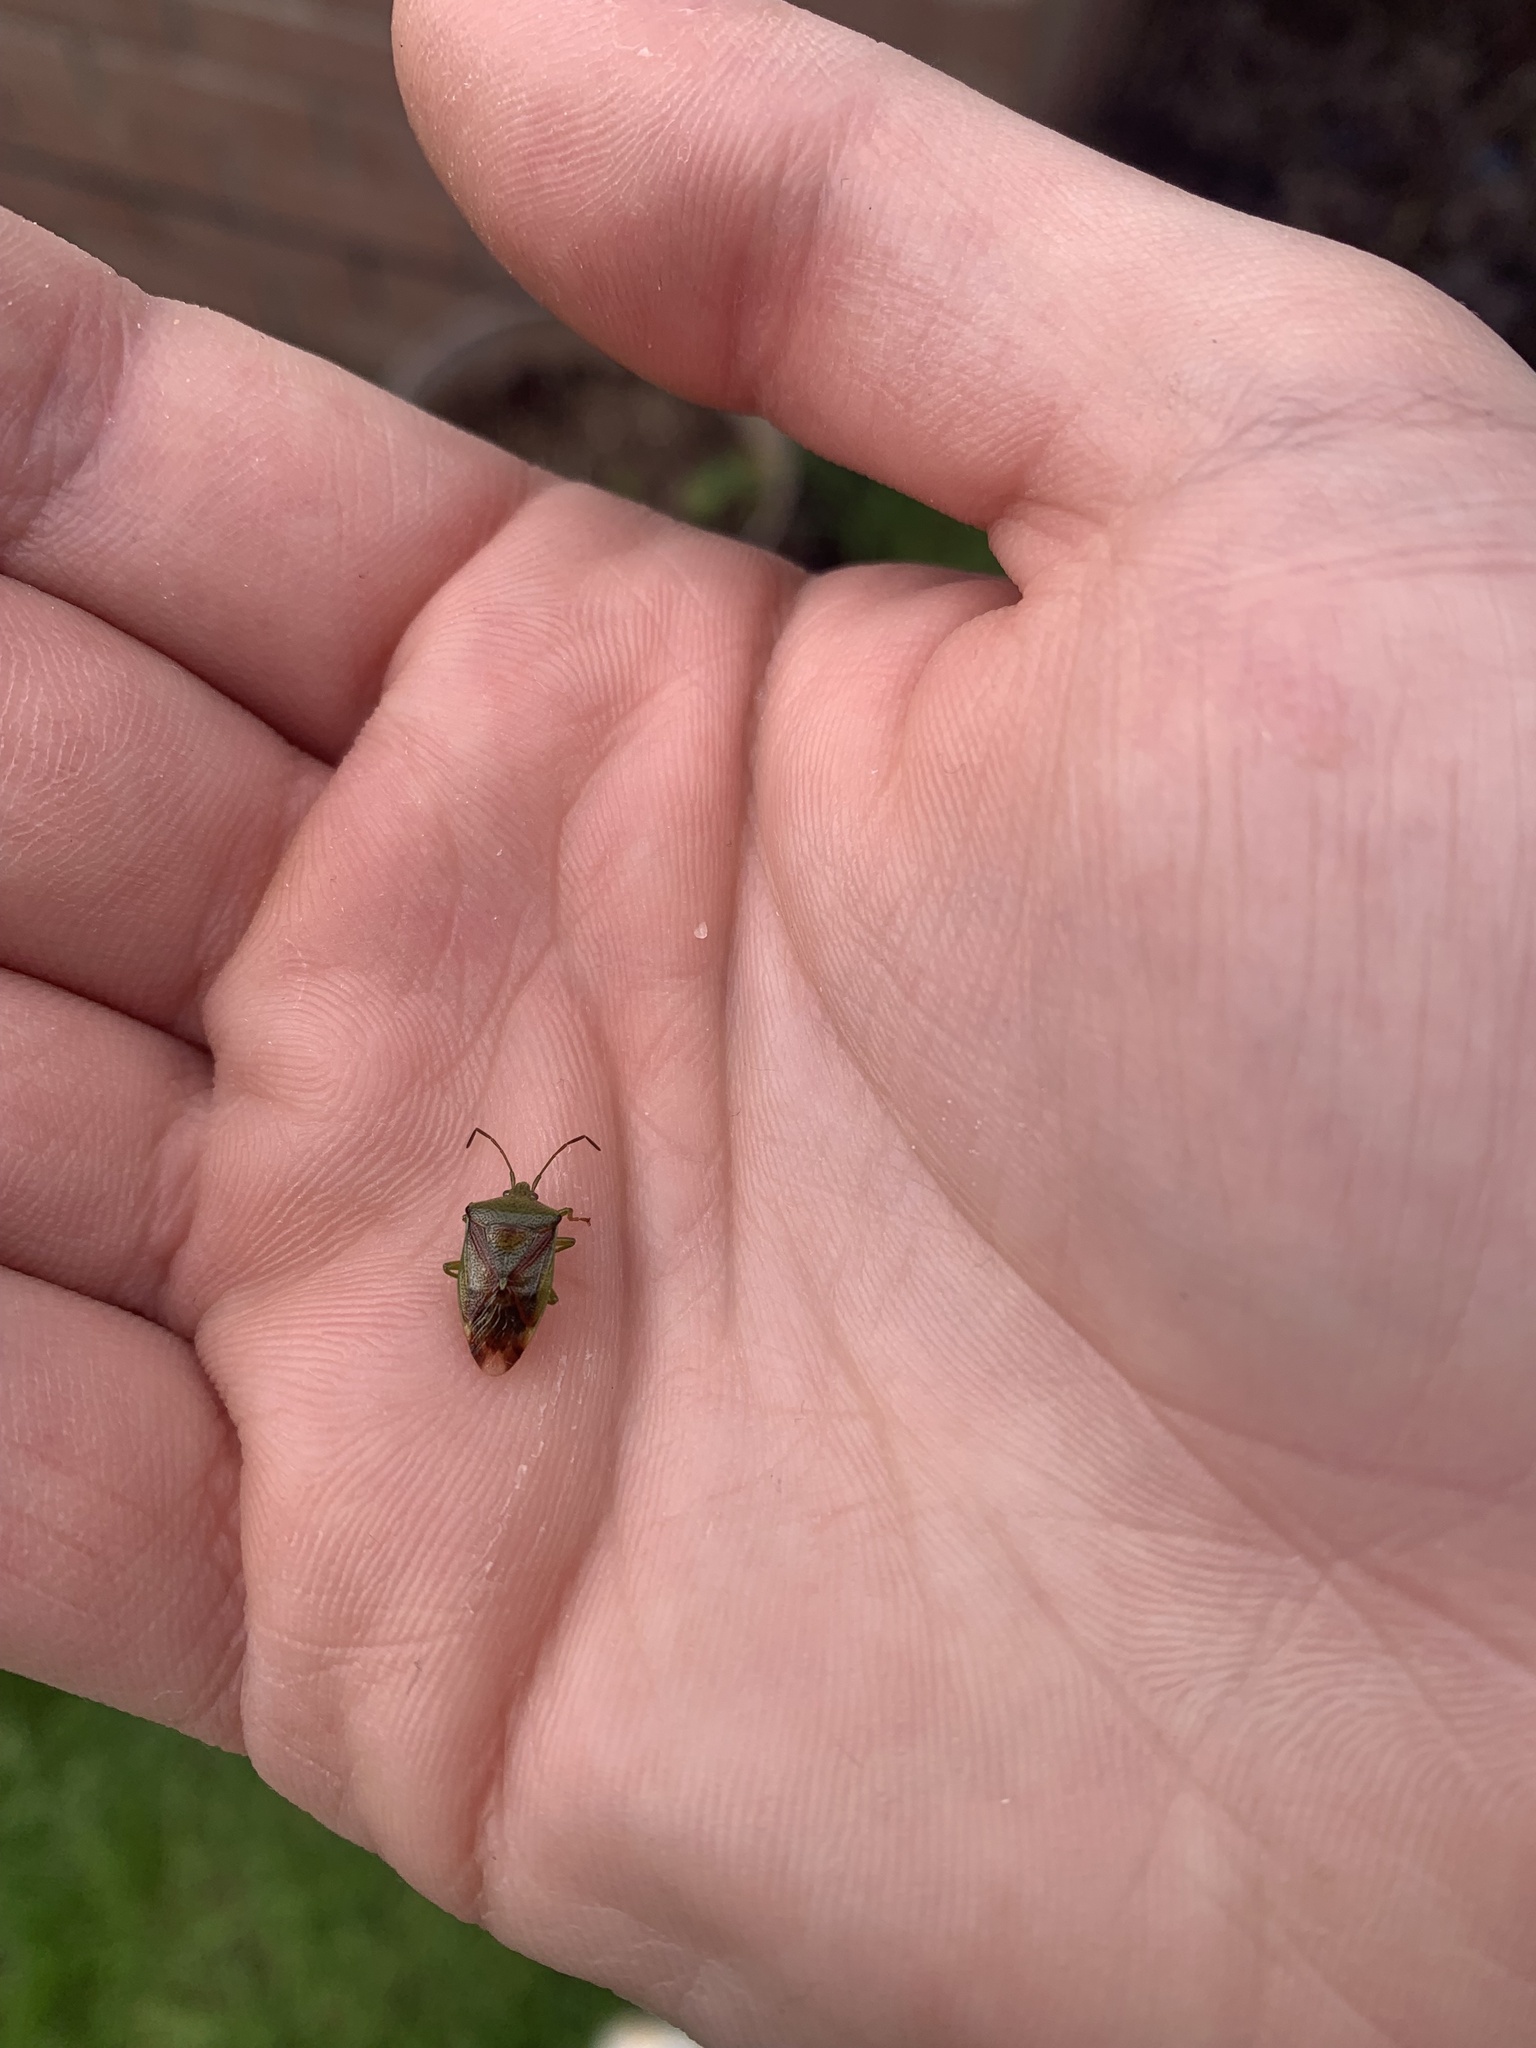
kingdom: Animalia
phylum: Arthropoda
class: Insecta
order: Hemiptera
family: Acanthosomatidae
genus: Elasmostethus
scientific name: Elasmostethus interstinctus
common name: Birch shieldbug
